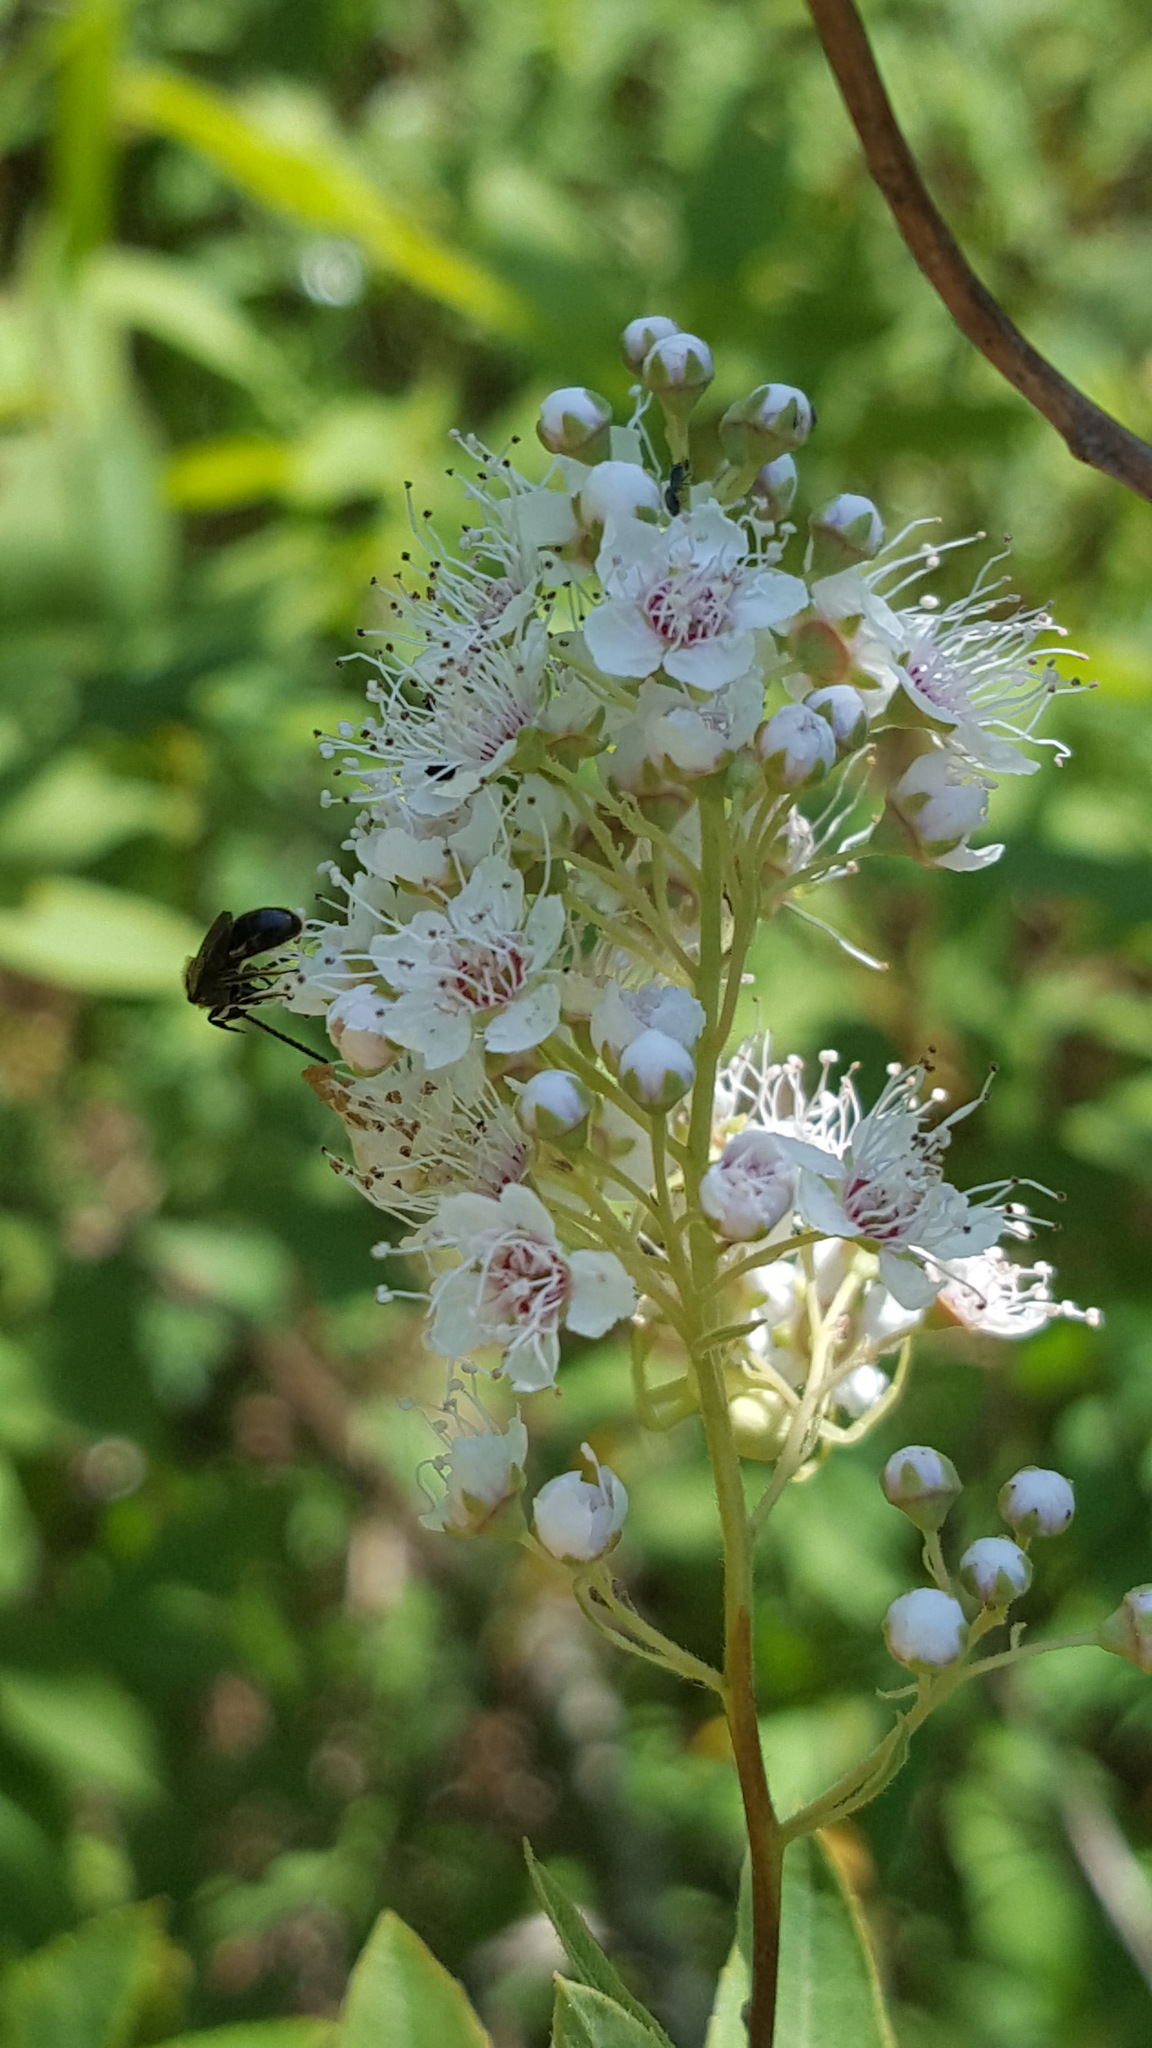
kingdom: Plantae
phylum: Tracheophyta
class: Magnoliopsida
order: Rosales
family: Rosaceae
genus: Spiraea
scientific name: Spiraea alba
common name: Pale bridewort
